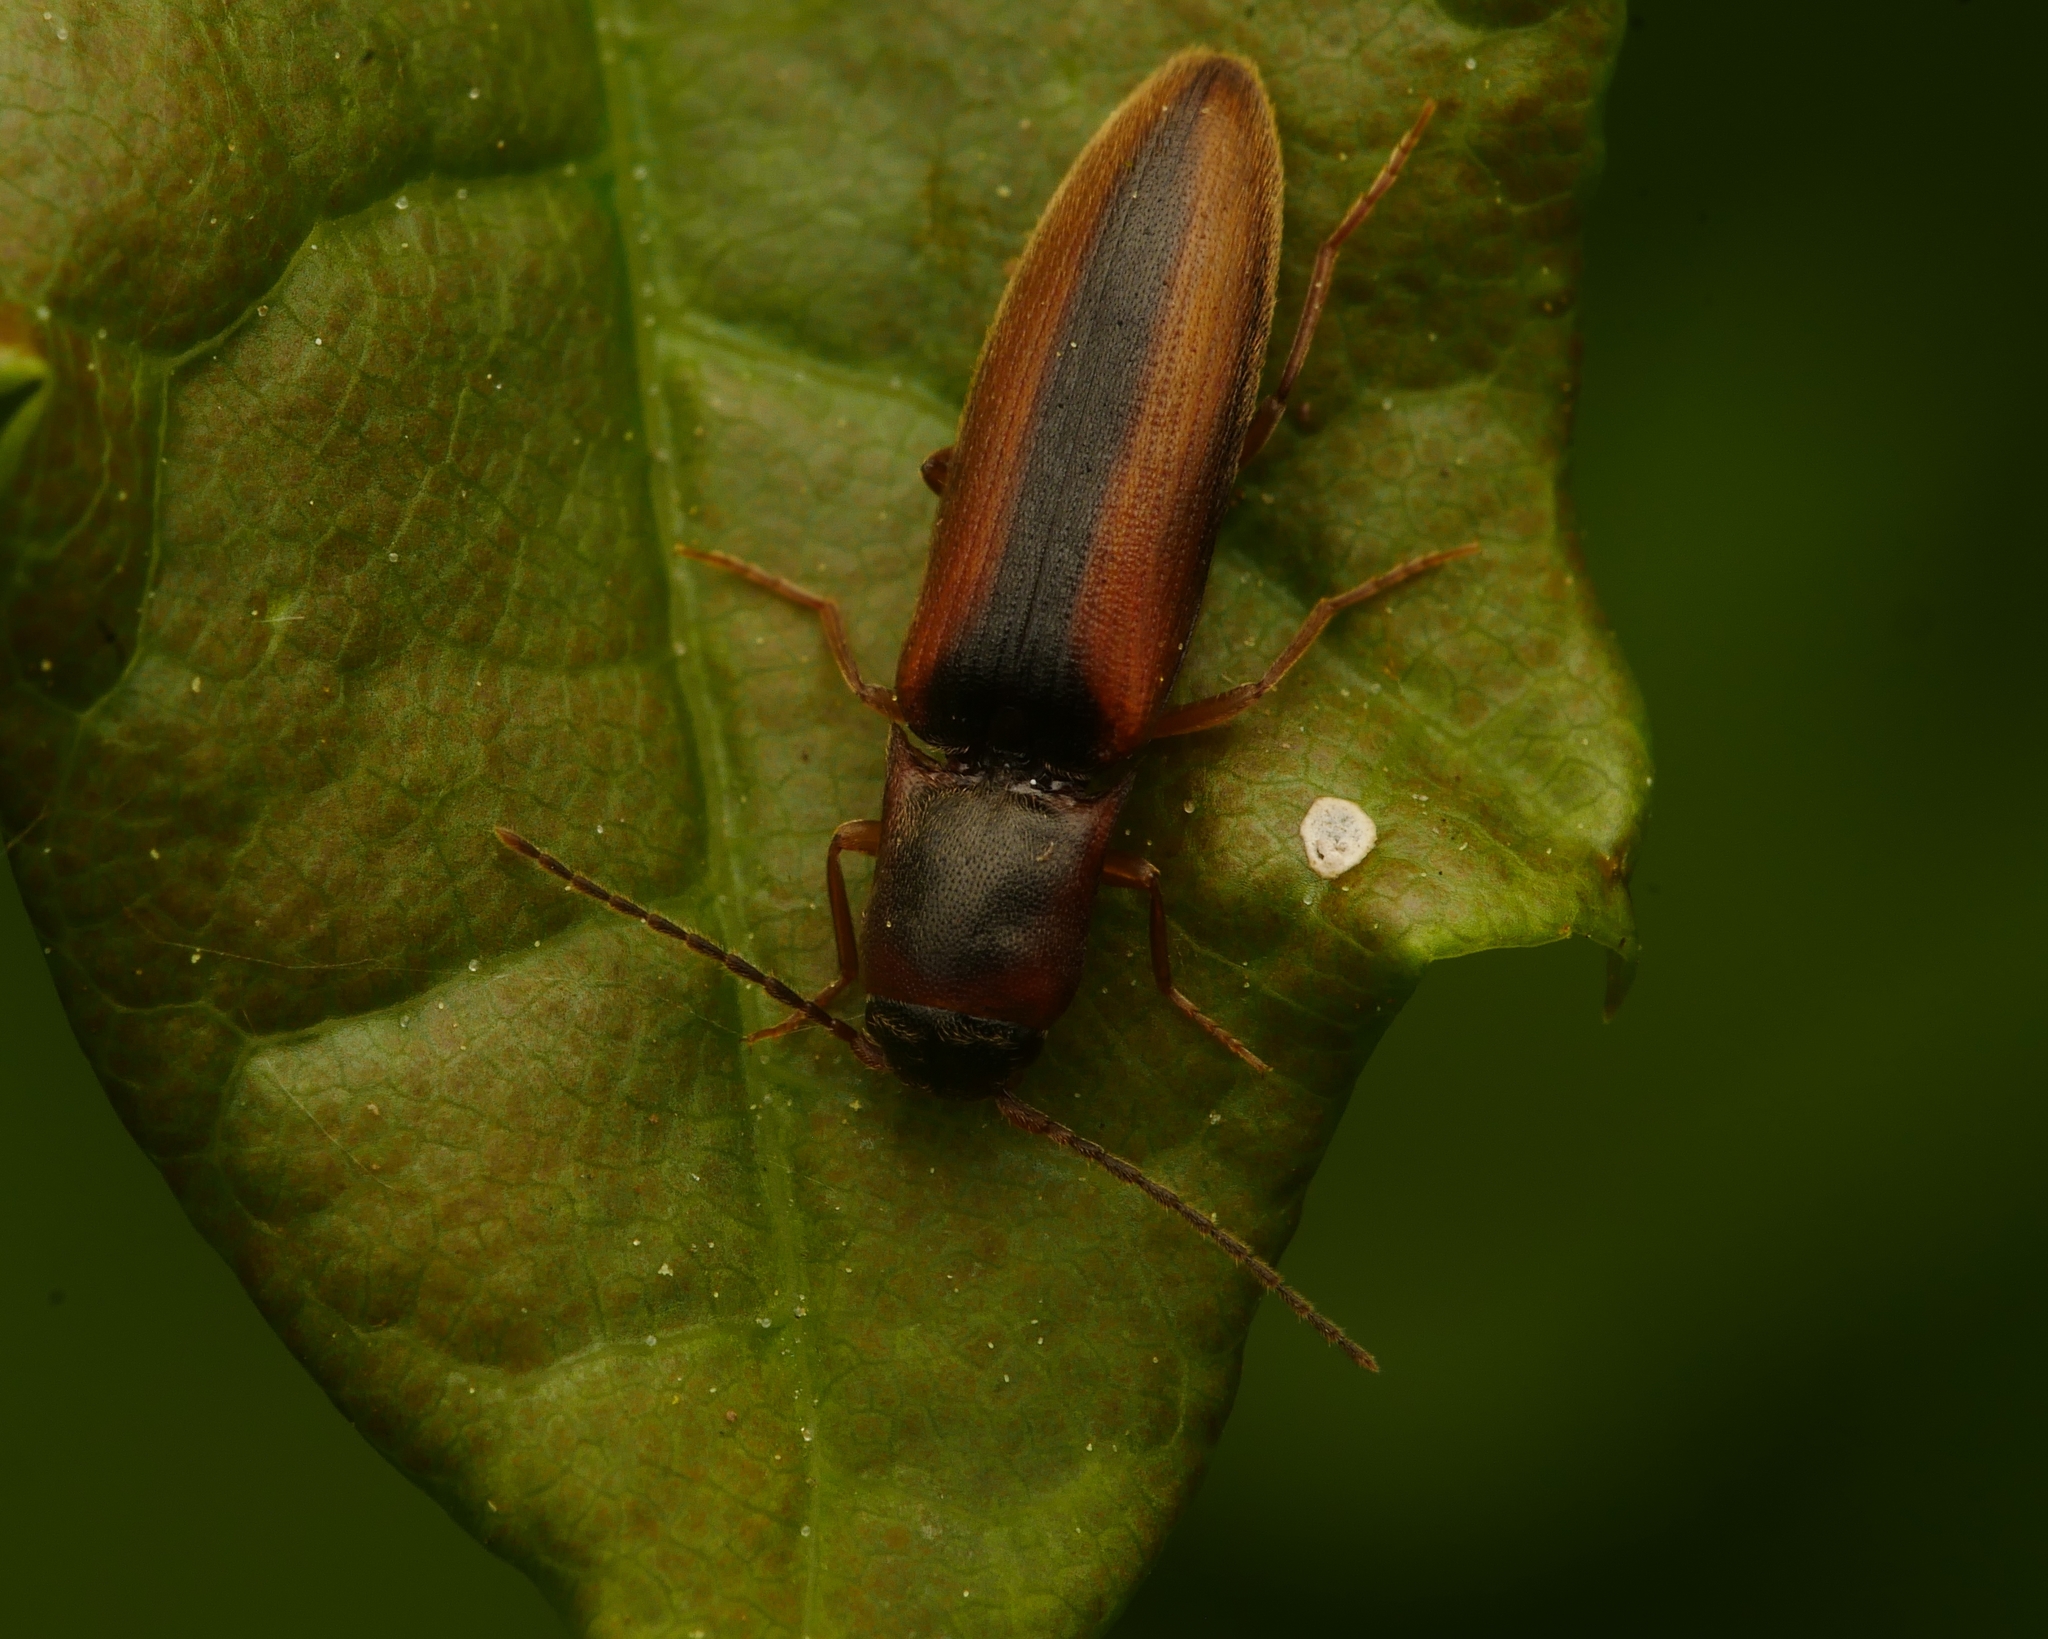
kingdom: Animalia
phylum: Arthropoda
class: Insecta
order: Coleoptera
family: Elateridae
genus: Dalopius
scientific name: Dalopius marginatus
